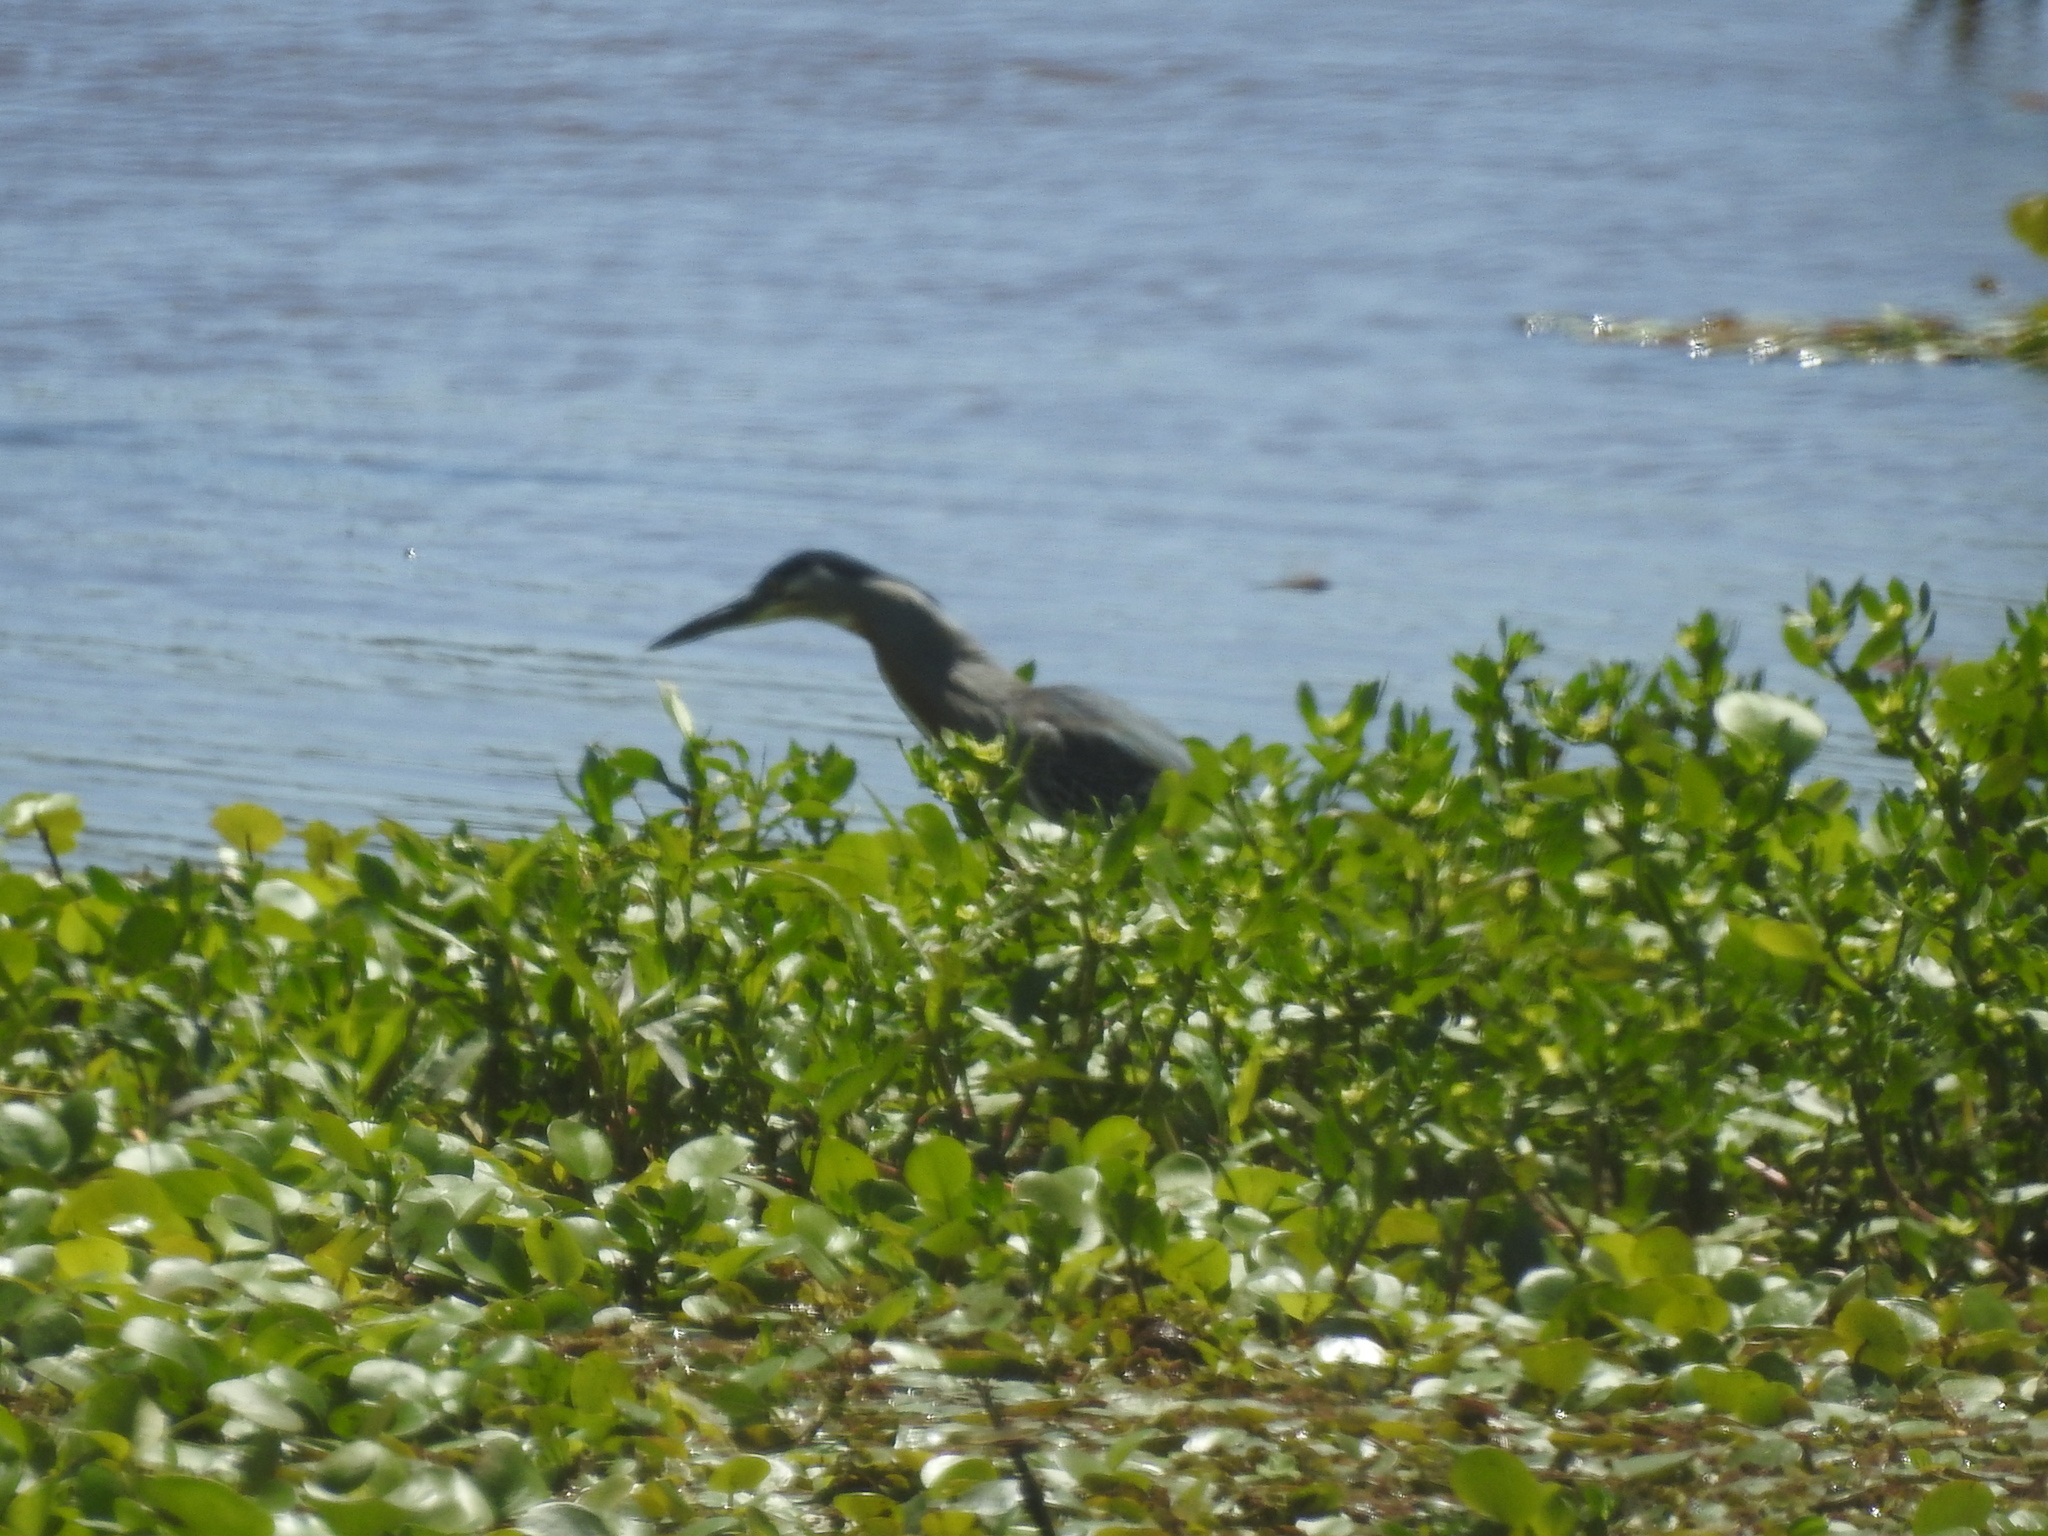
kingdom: Animalia
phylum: Chordata
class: Aves
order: Pelecaniformes
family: Ardeidae
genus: Butorides
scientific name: Butorides striata
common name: Striated heron
